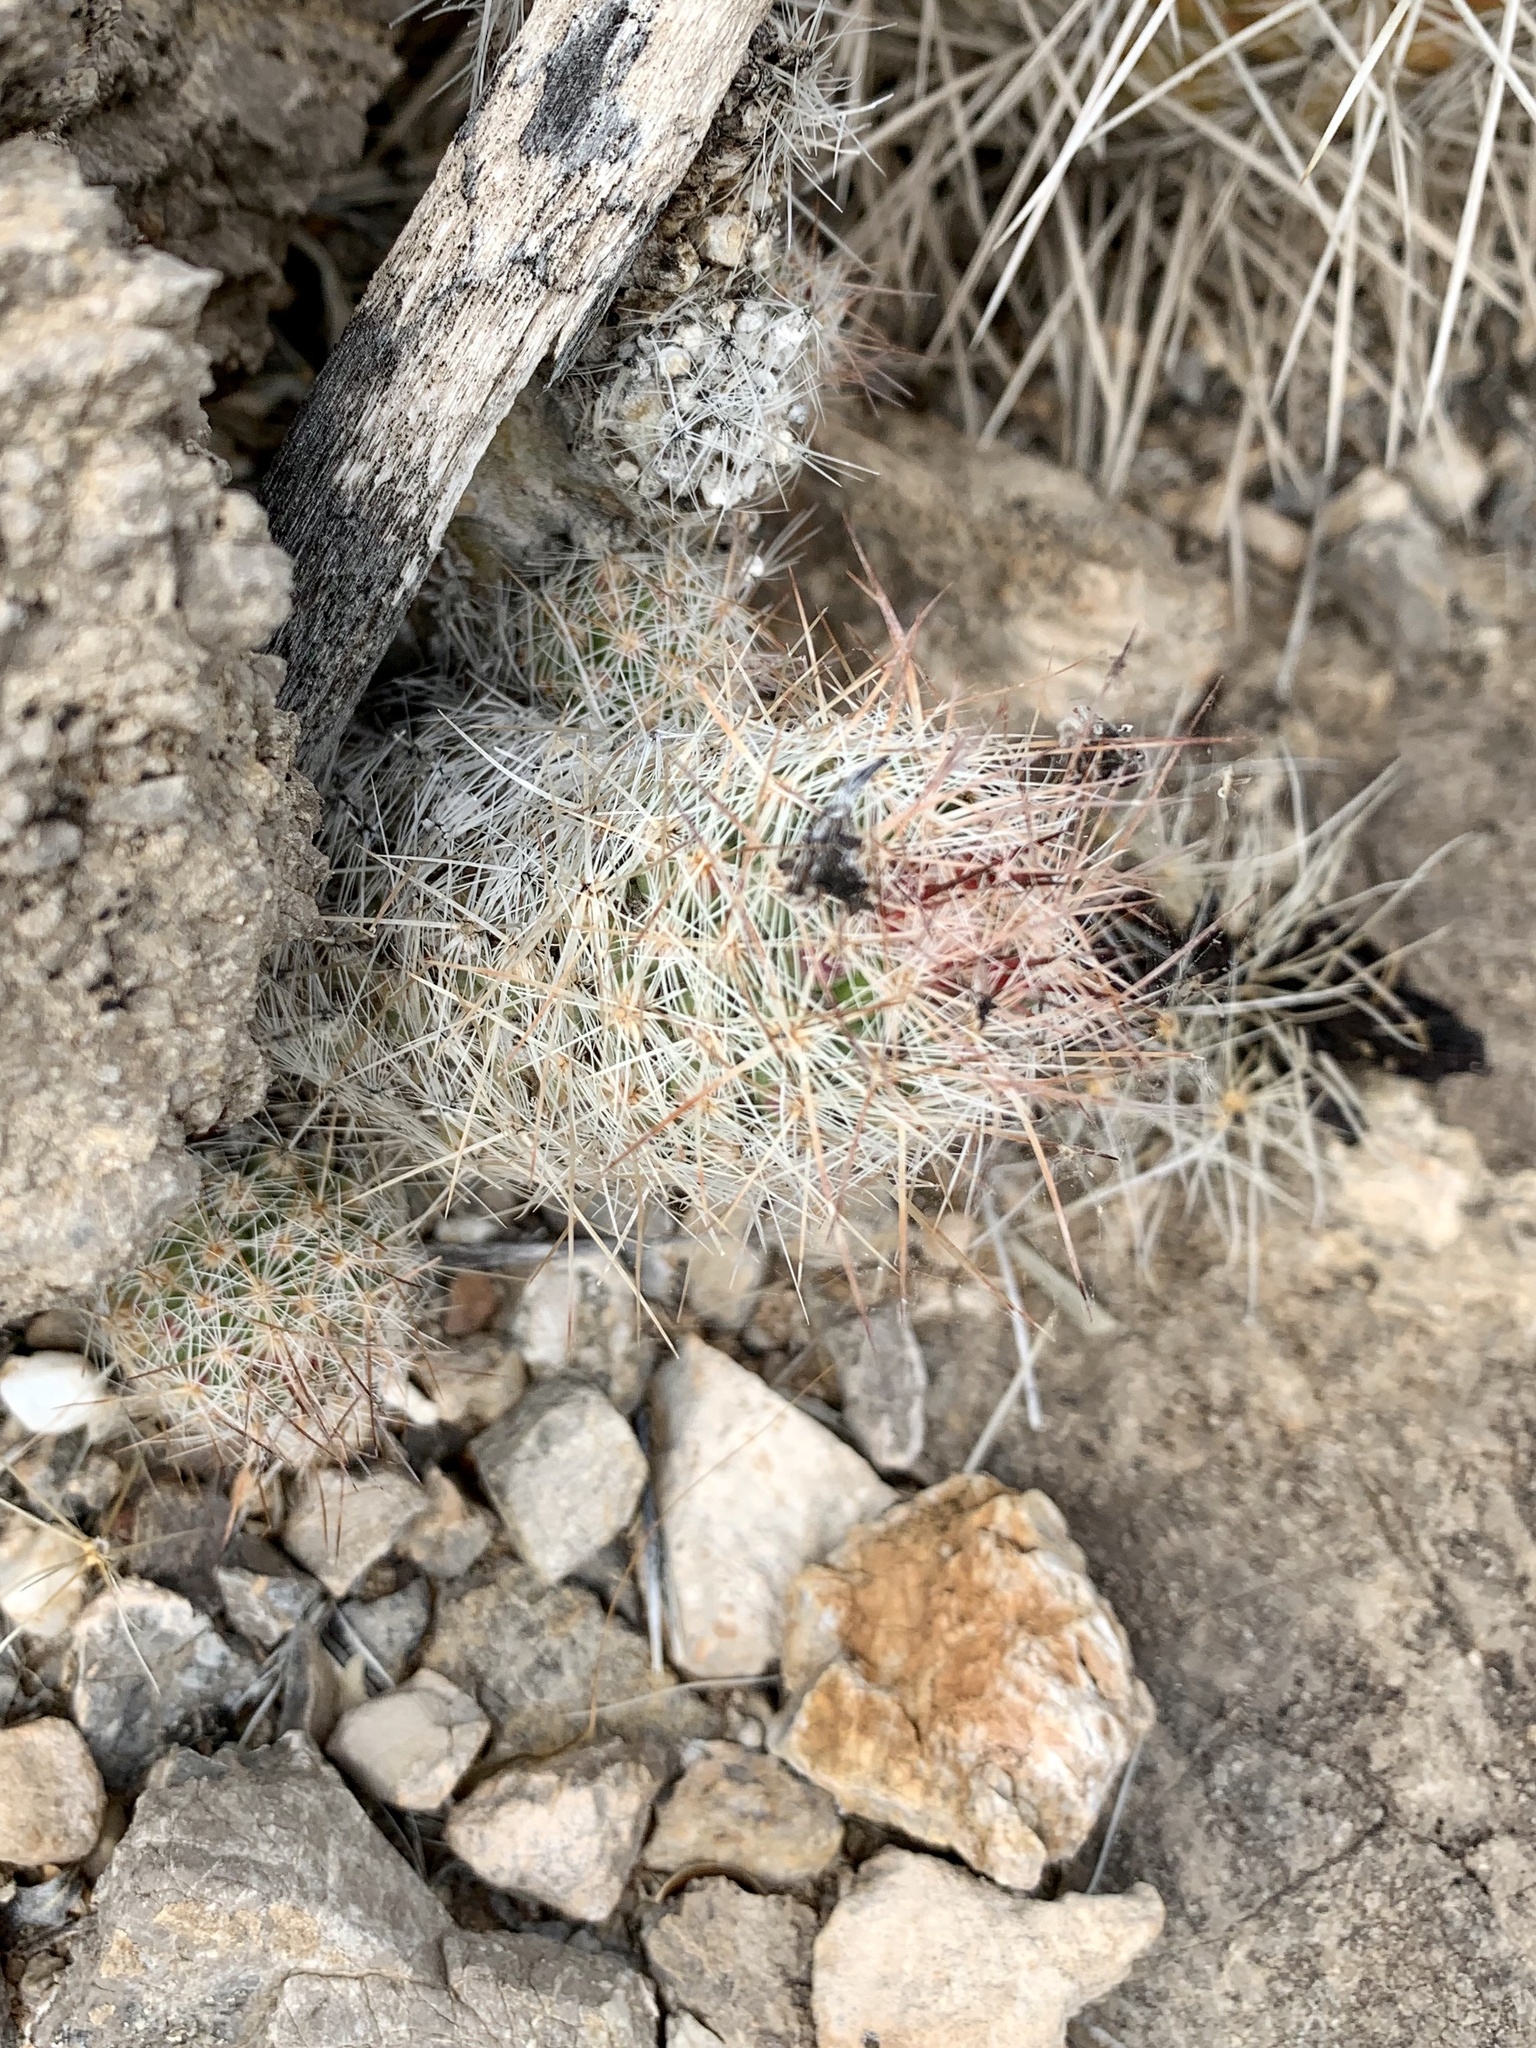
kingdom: Plantae
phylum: Tracheophyta
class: Magnoliopsida
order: Caryophyllales
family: Cactaceae
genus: Pelecyphora
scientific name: Pelecyphora tuberculosa
